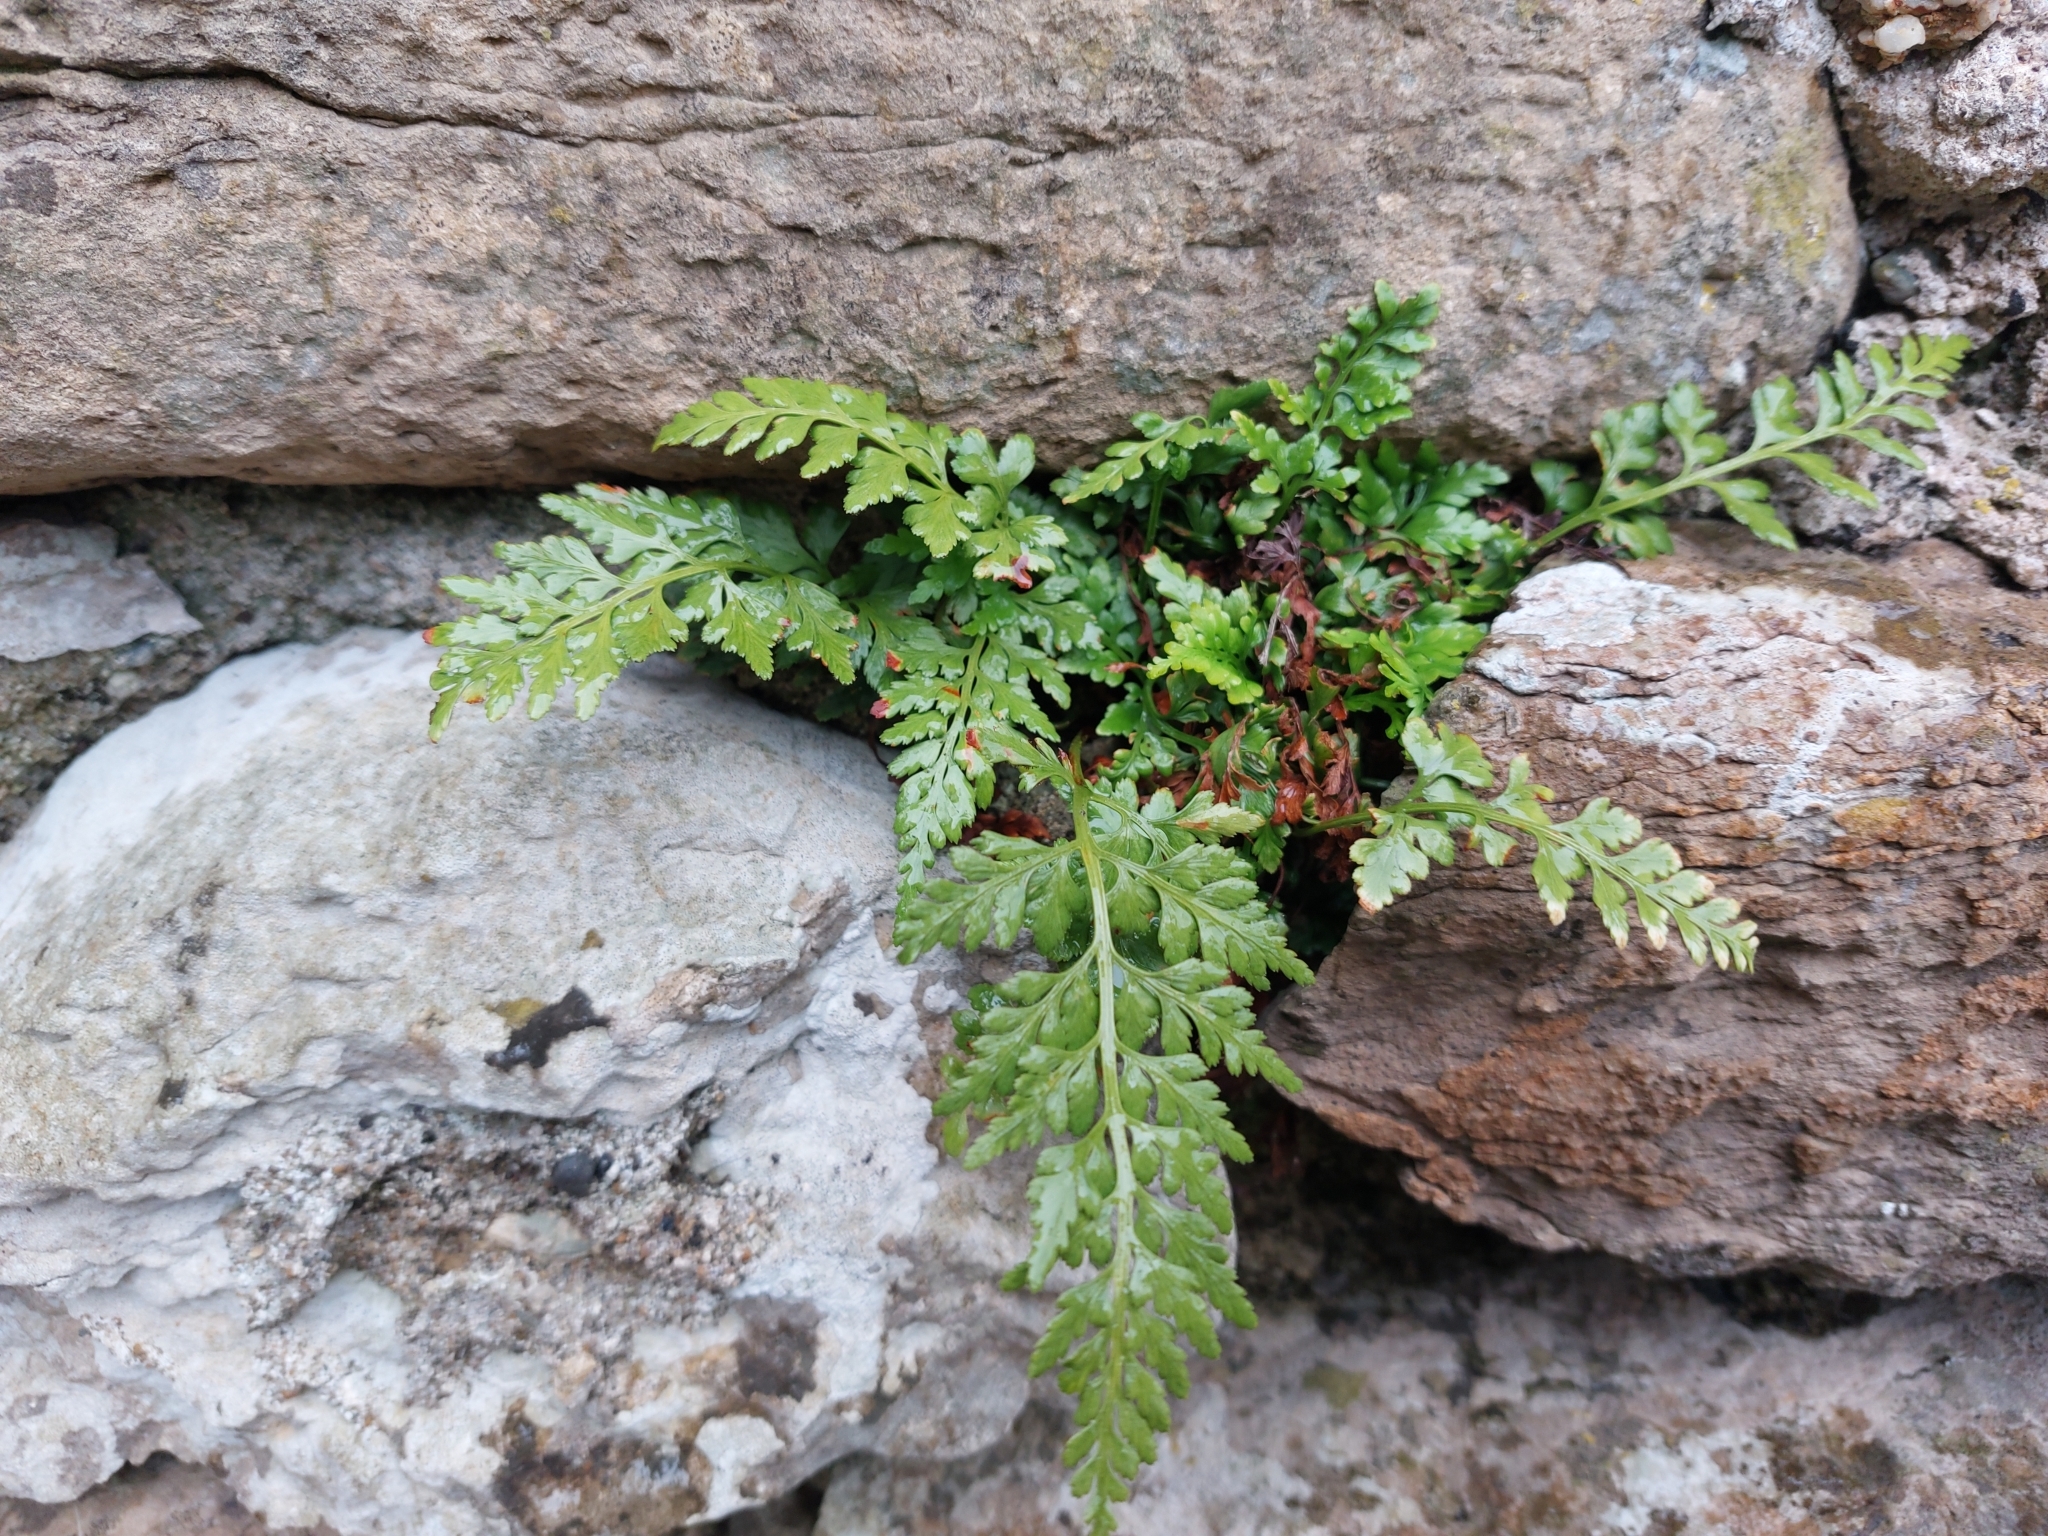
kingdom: Plantae
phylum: Tracheophyta
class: Polypodiopsida
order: Polypodiales
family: Aspleniaceae
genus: Asplenium
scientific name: Asplenium adiantum-nigrum
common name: Black spleenwort
